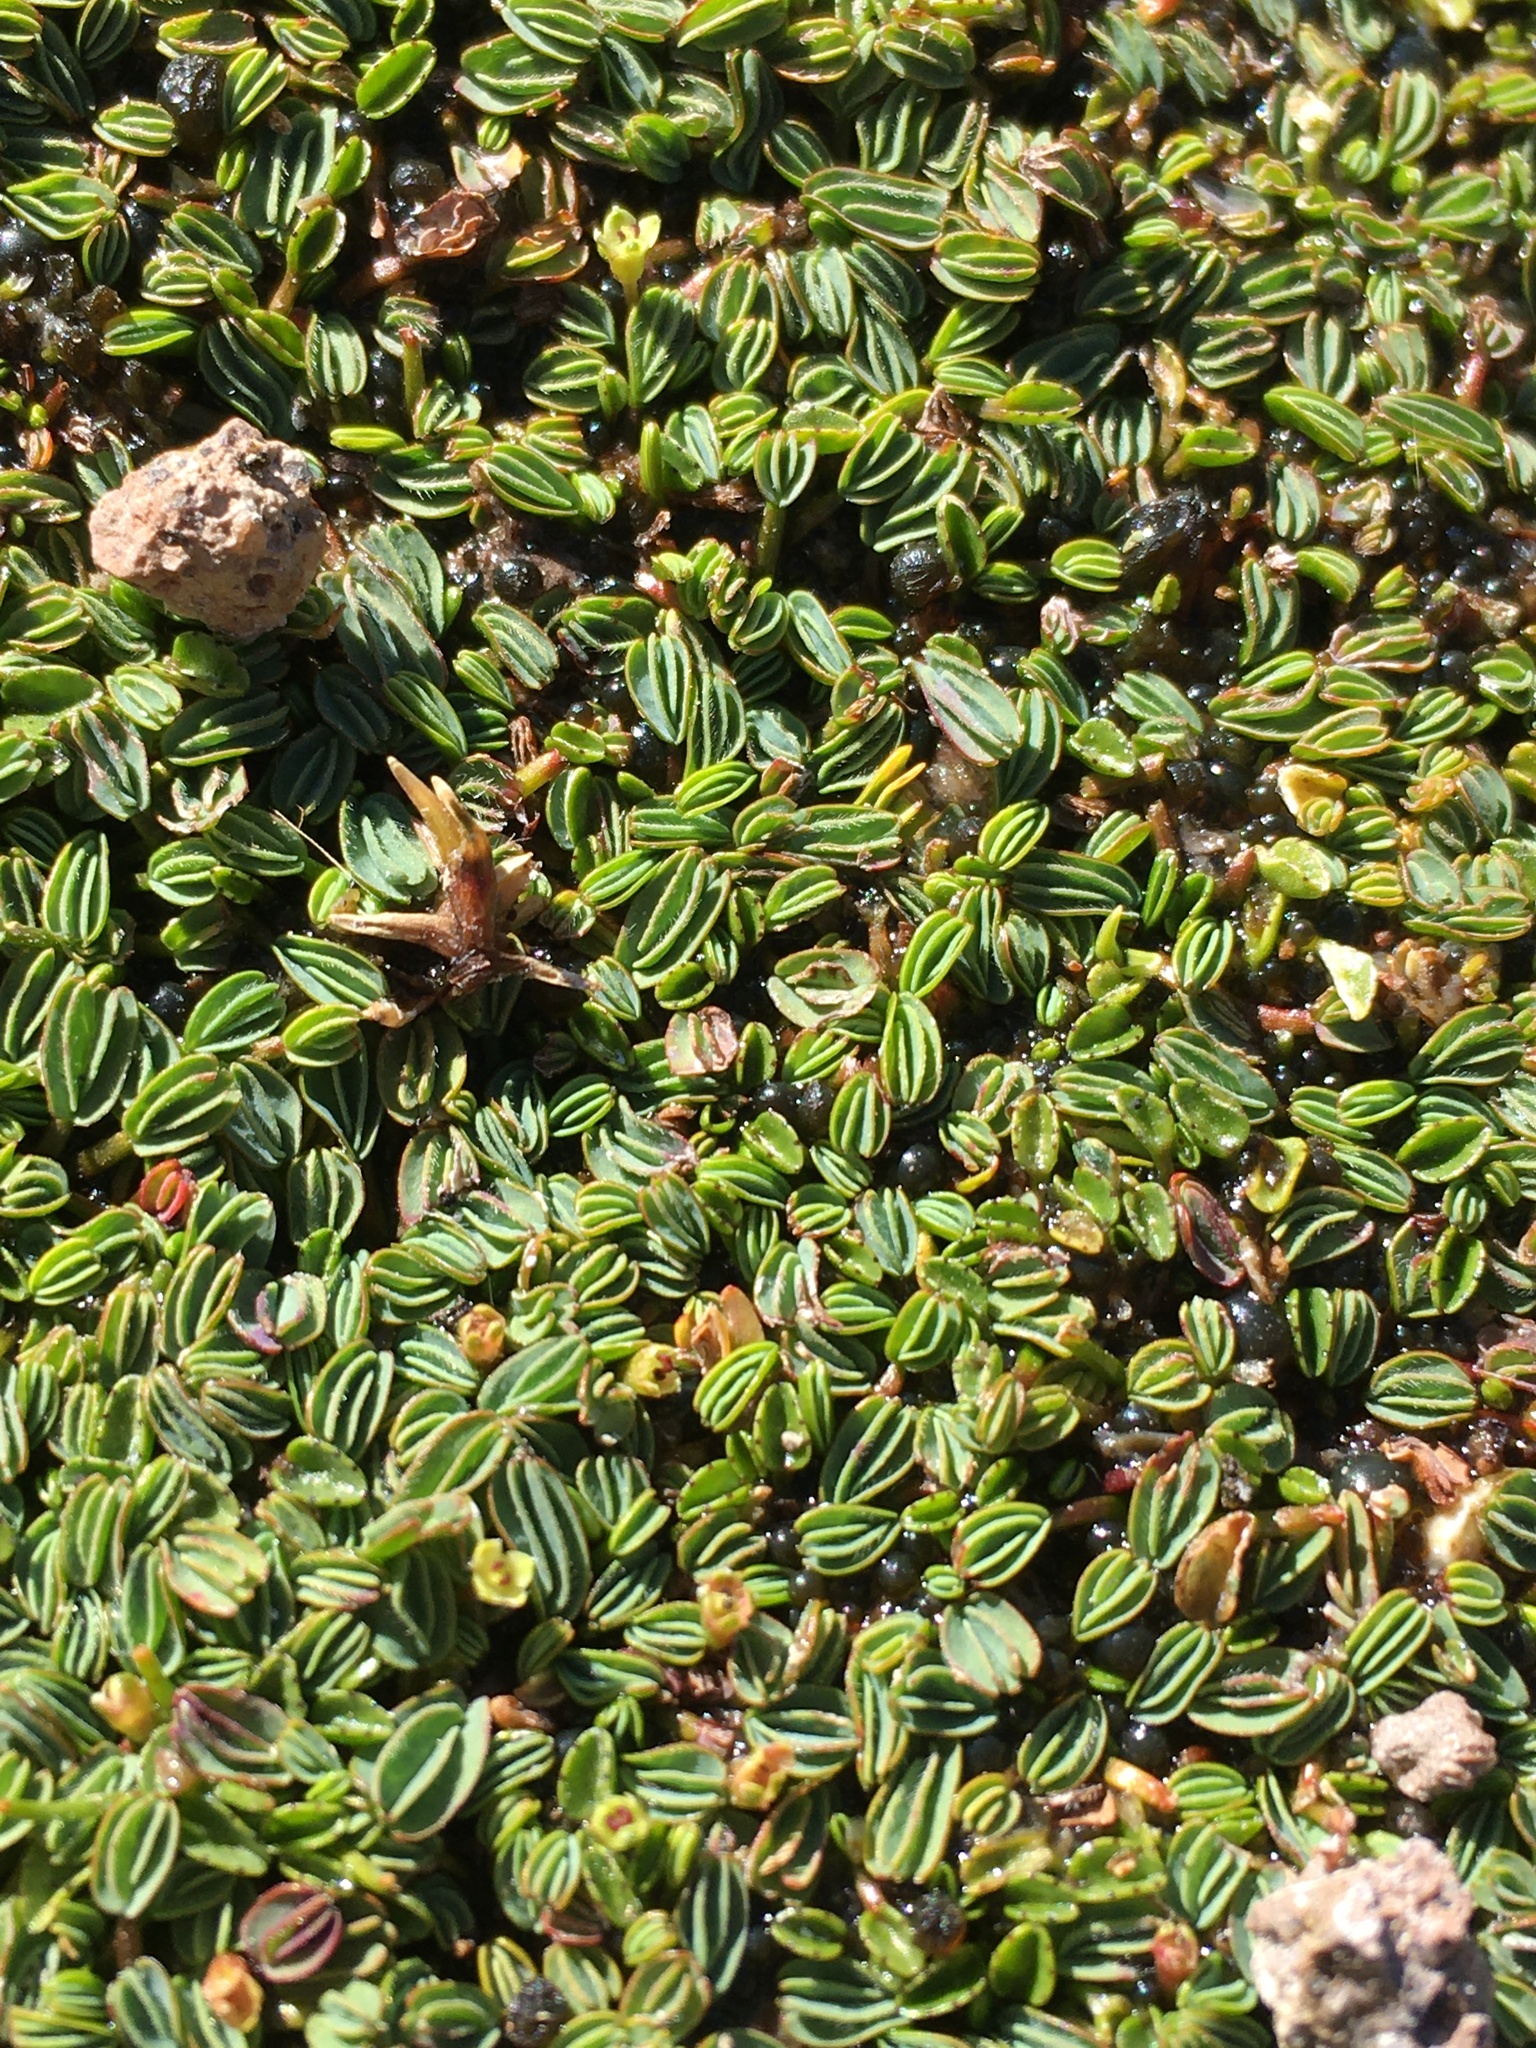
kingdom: Plantae
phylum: Tracheophyta
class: Magnoliopsida
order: Rosales
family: Rosaceae
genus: Lachemilla
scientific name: Lachemilla diplophylla
